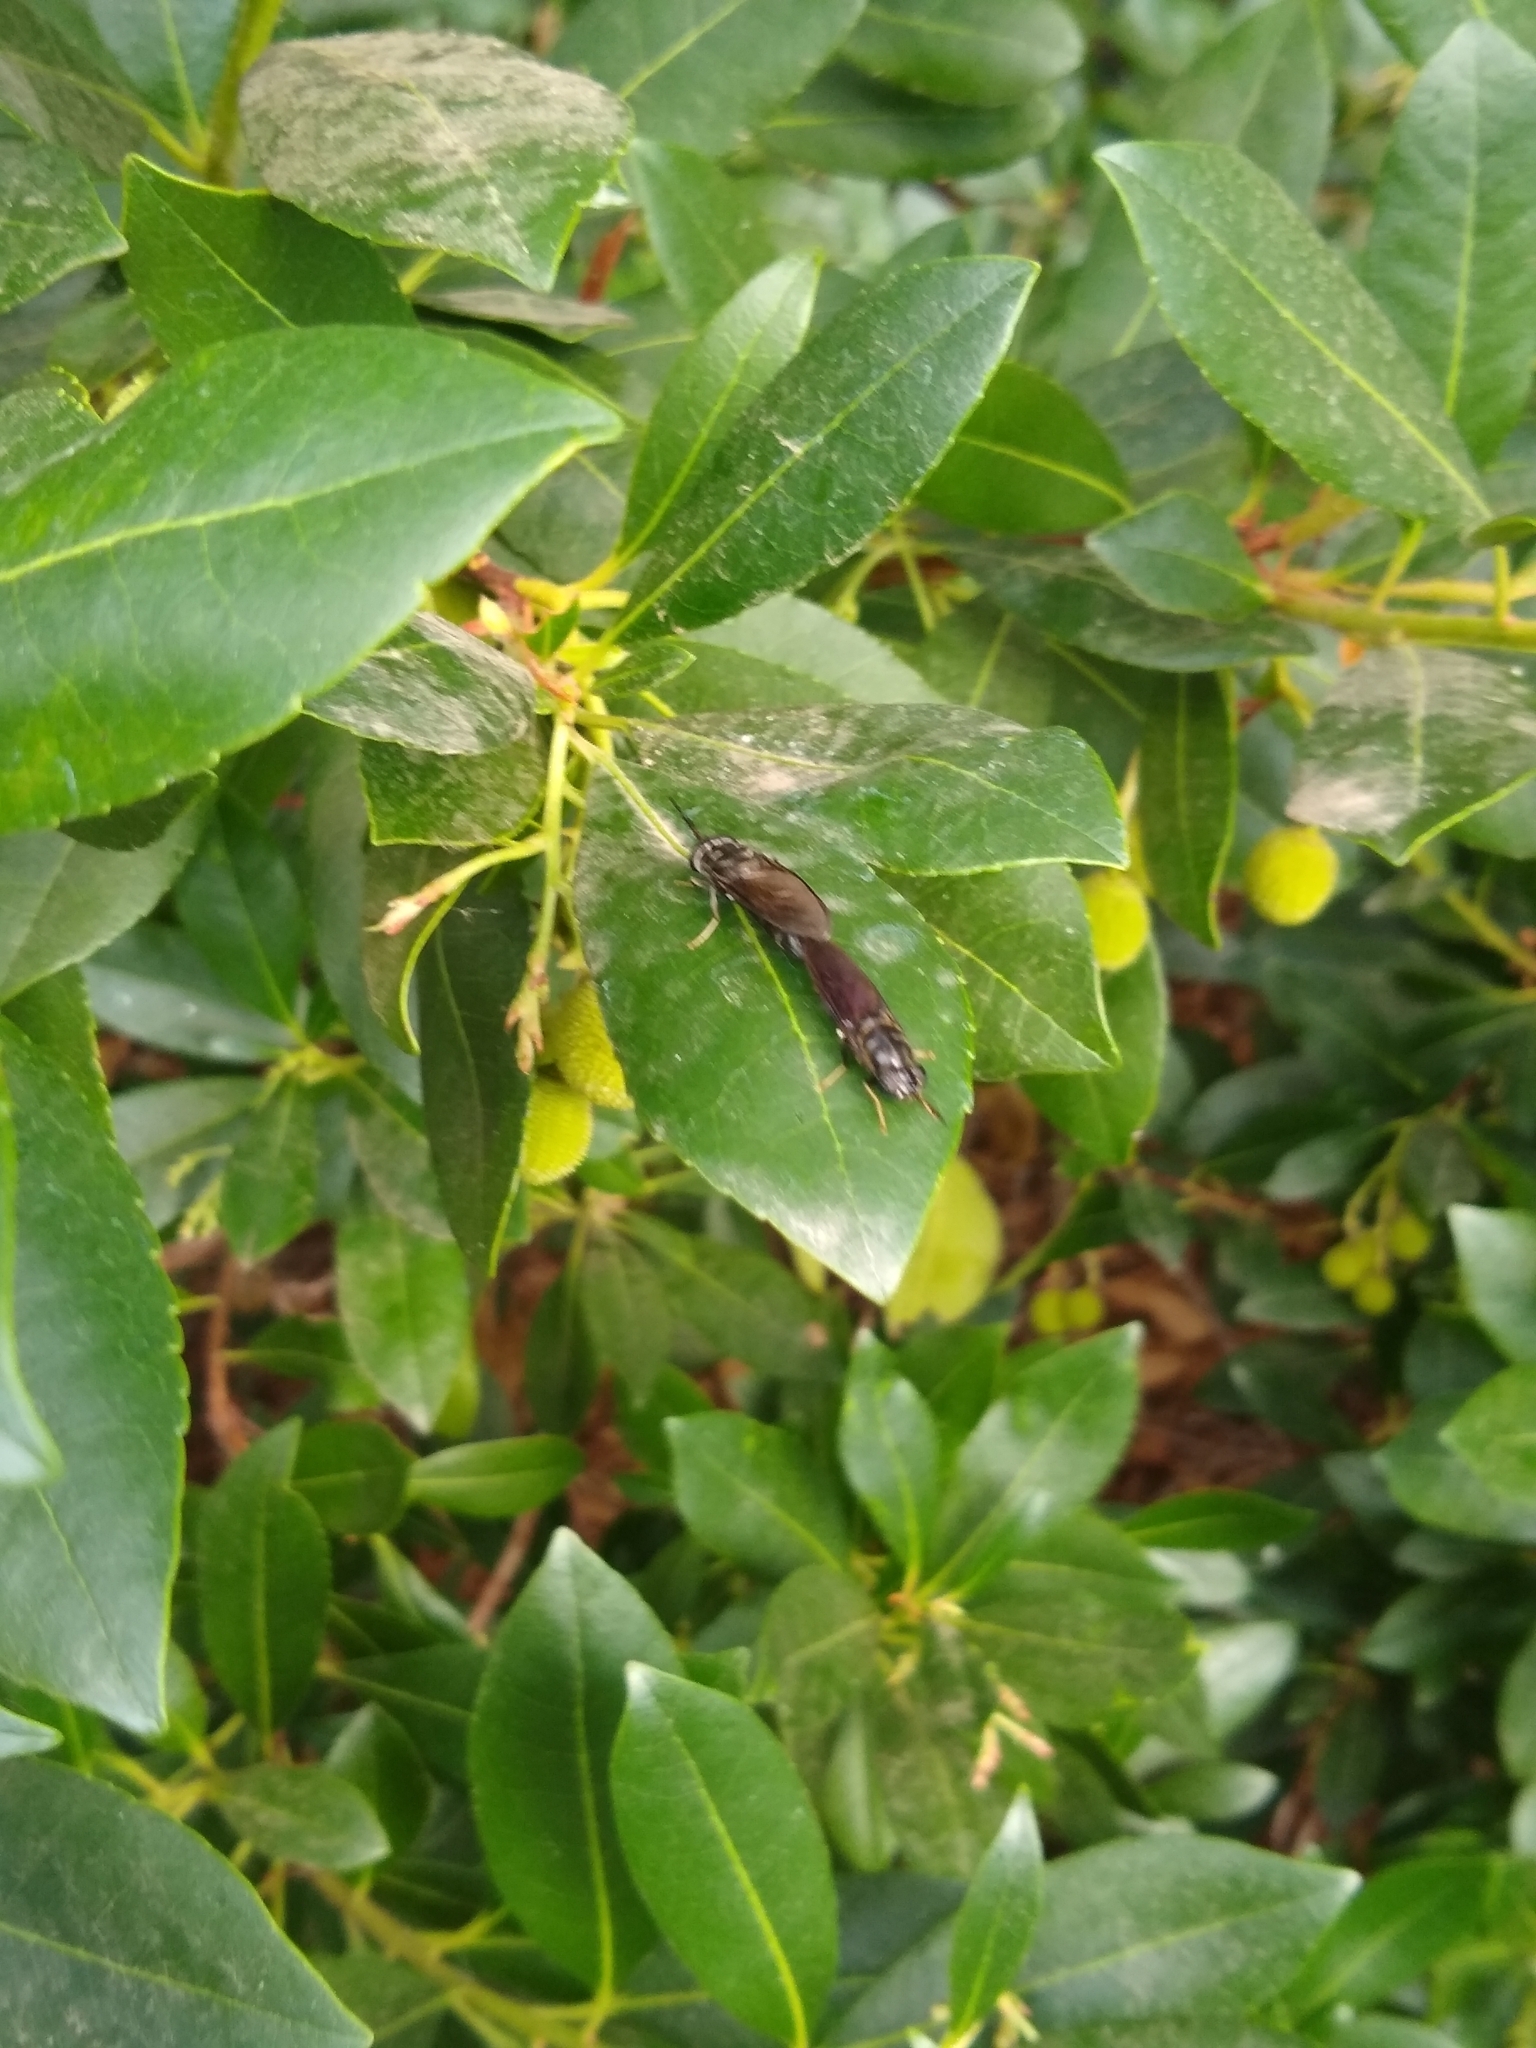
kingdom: Animalia
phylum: Arthropoda
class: Insecta
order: Diptera
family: Stratiomyidae
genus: Hermetia
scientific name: Hermetia illucens
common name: Black soldier fly
